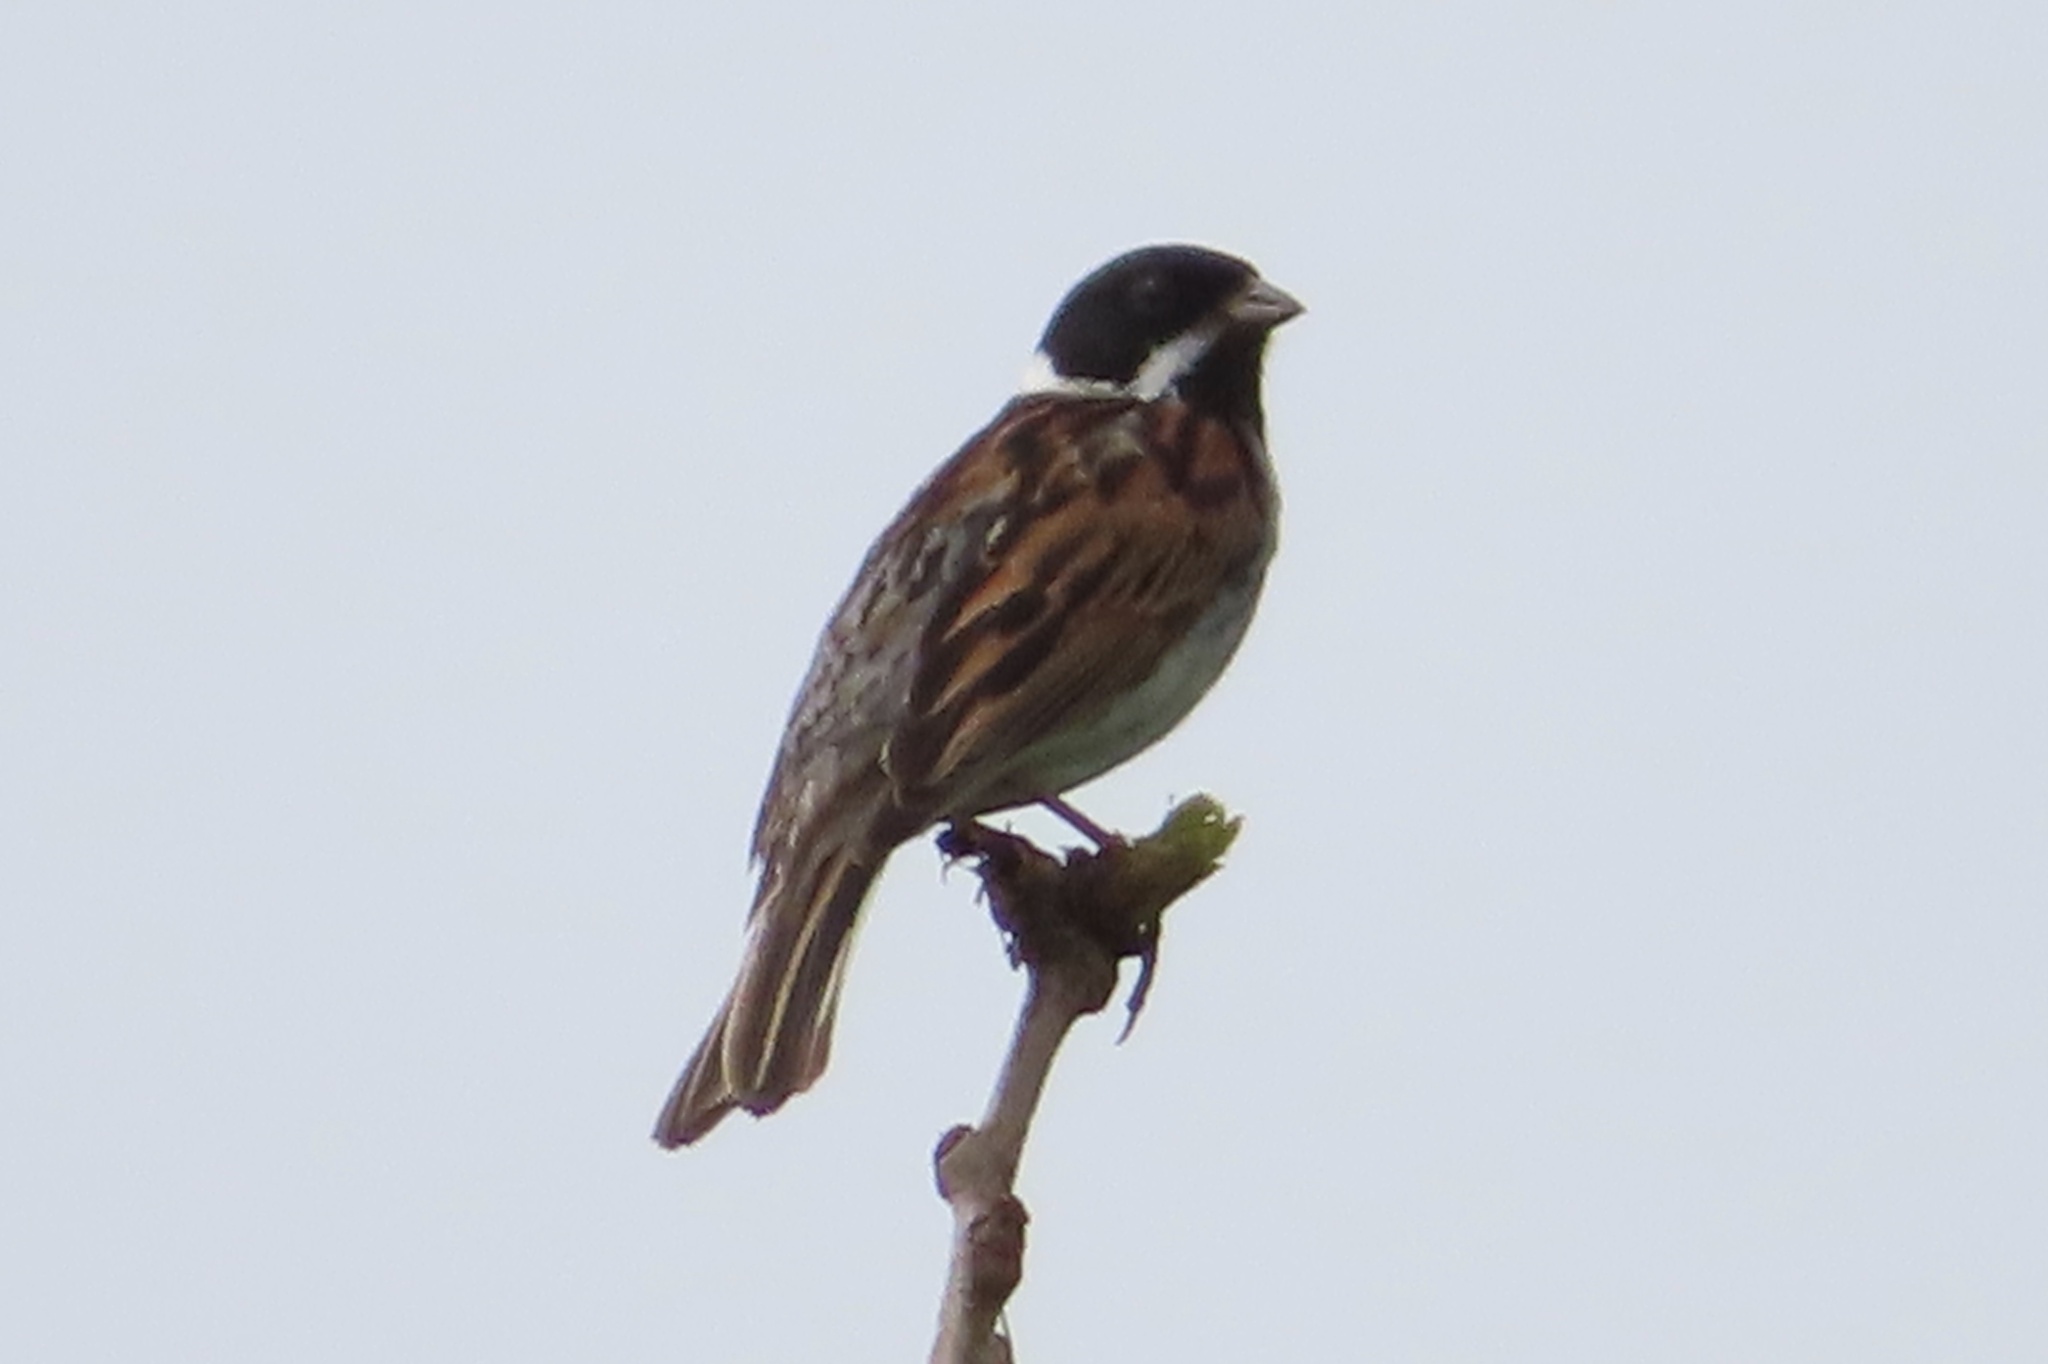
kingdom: Animalia
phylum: Chordata
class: Aves
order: Passeriformes
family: Emberizidae
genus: Emberiza
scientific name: Emberiza schoeniclus
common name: Reed bunting
